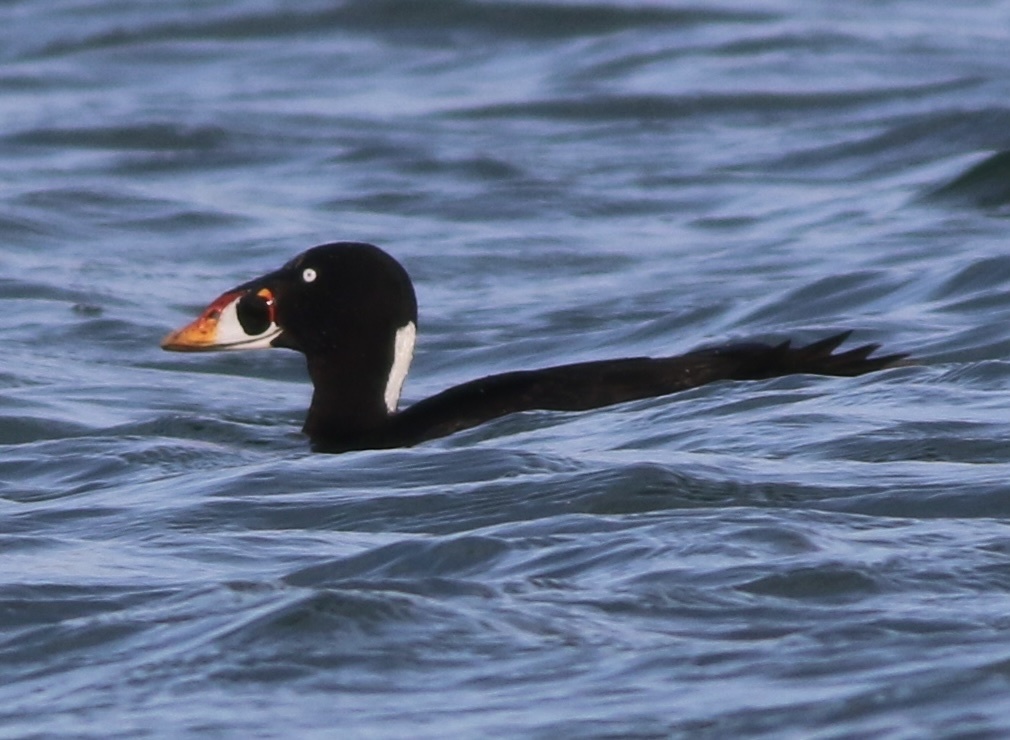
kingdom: Animalia
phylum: Chordata
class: Aves
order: Anseriformes
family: Anatidae
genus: Melanitta
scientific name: Melanitta perspicillata
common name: Surf scoter
